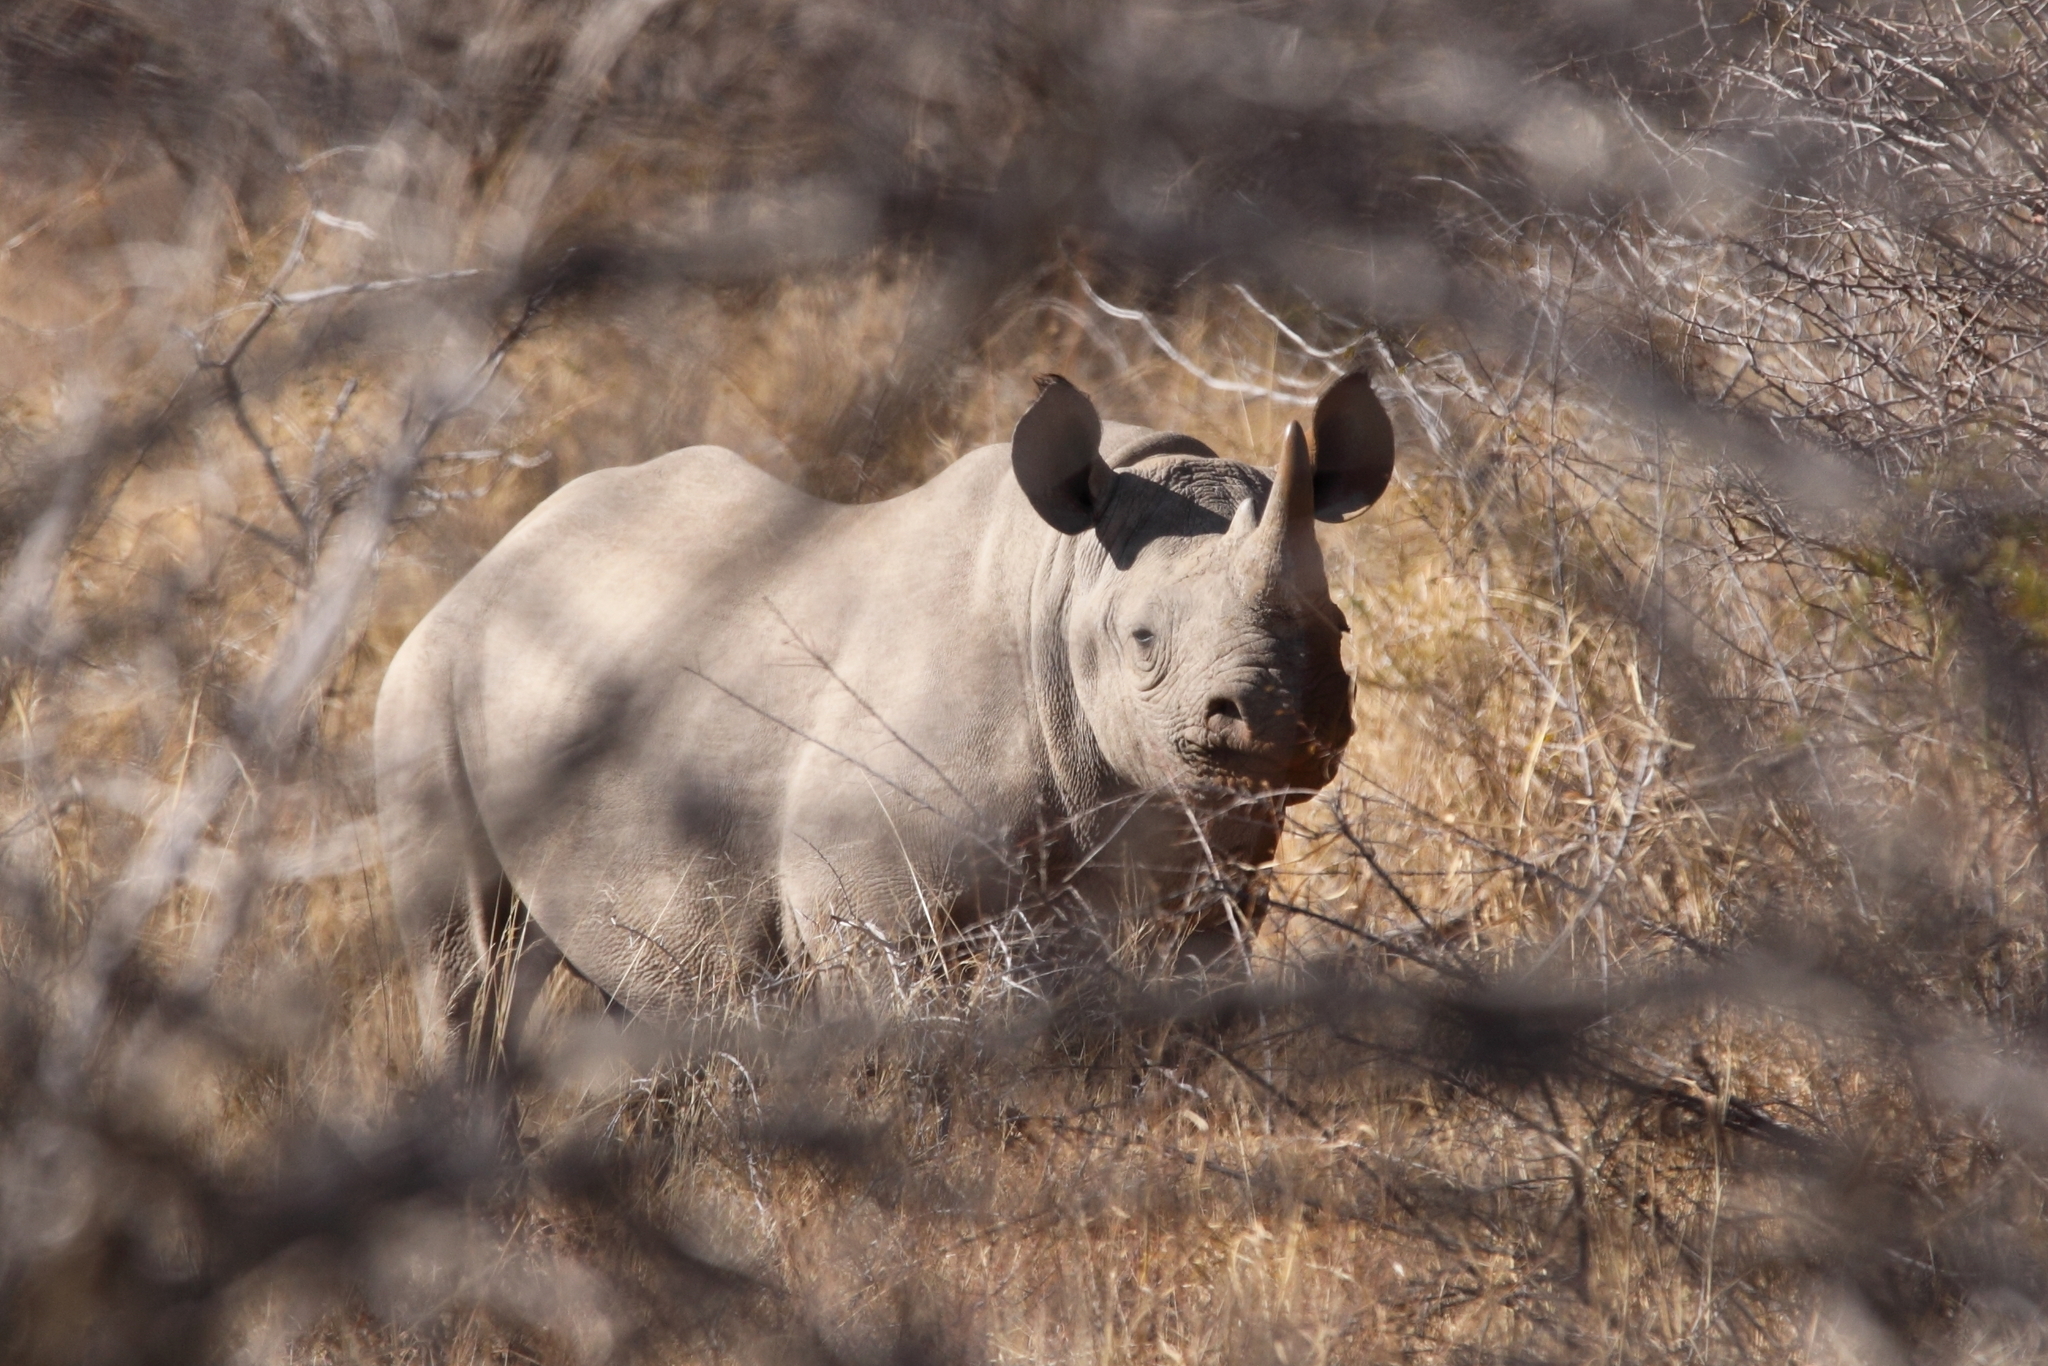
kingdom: Animalia
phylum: Chordata
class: Mammalia
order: Perissodactyla
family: Rhinocerotidae
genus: Diceros
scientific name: Diceros bicornis
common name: Black rhinoceros
